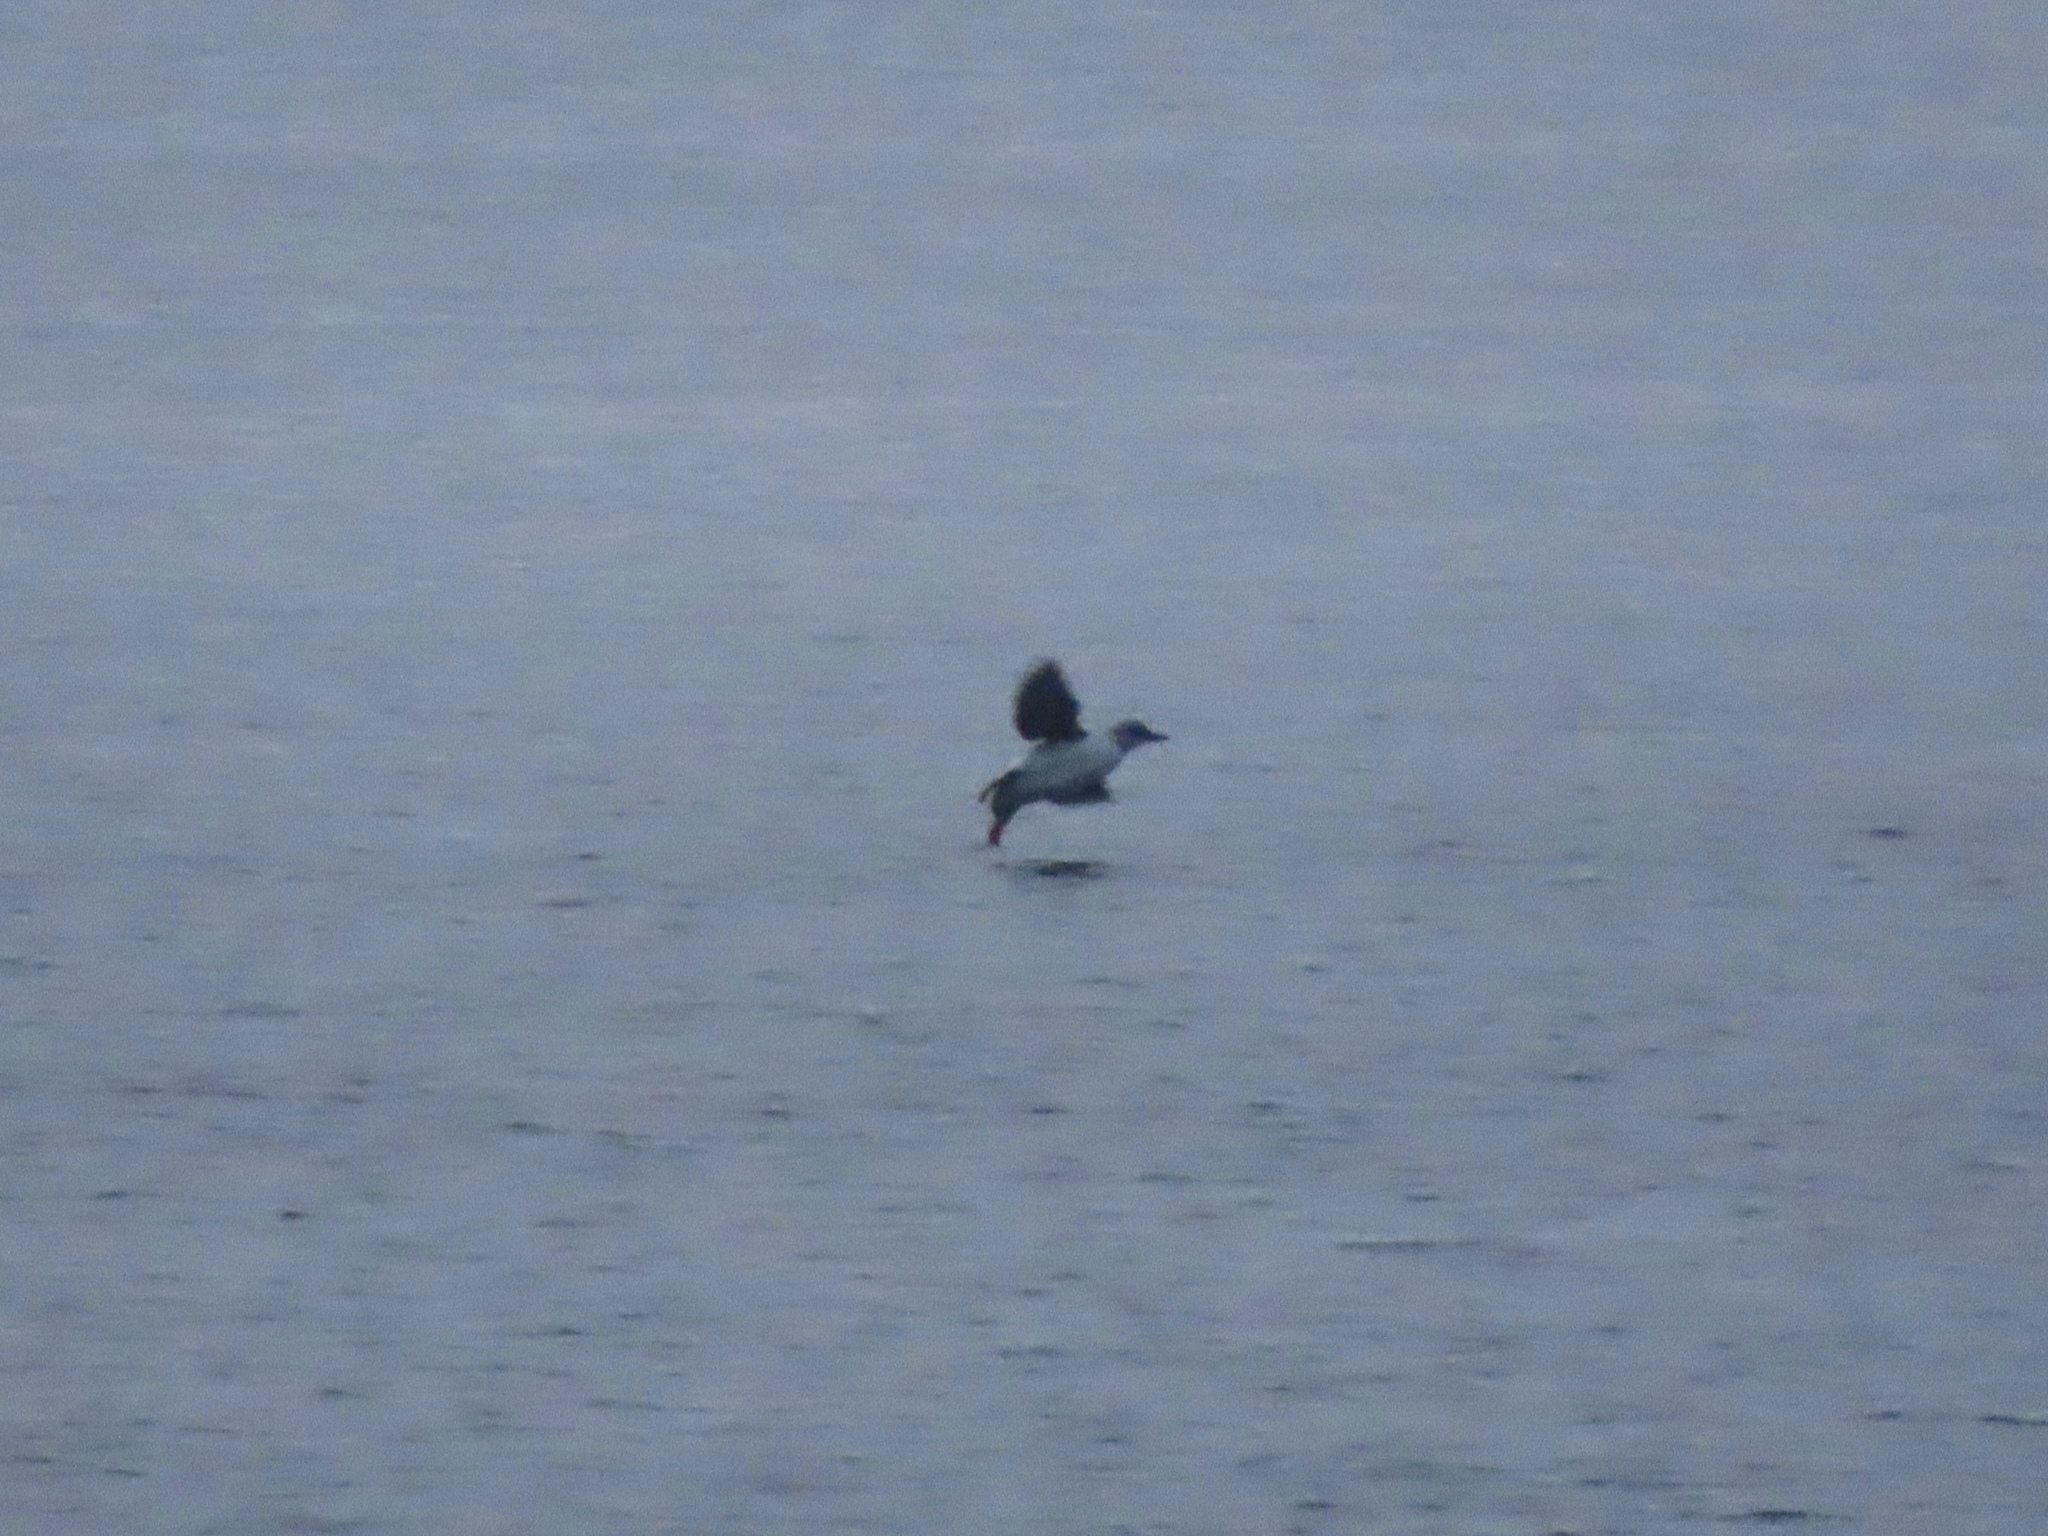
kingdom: Animalia
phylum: Chordata
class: Aves
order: Charadriiformes
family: Alcidae
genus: Cepphus
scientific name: Cepphus columba
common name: Pigeon guillemot
